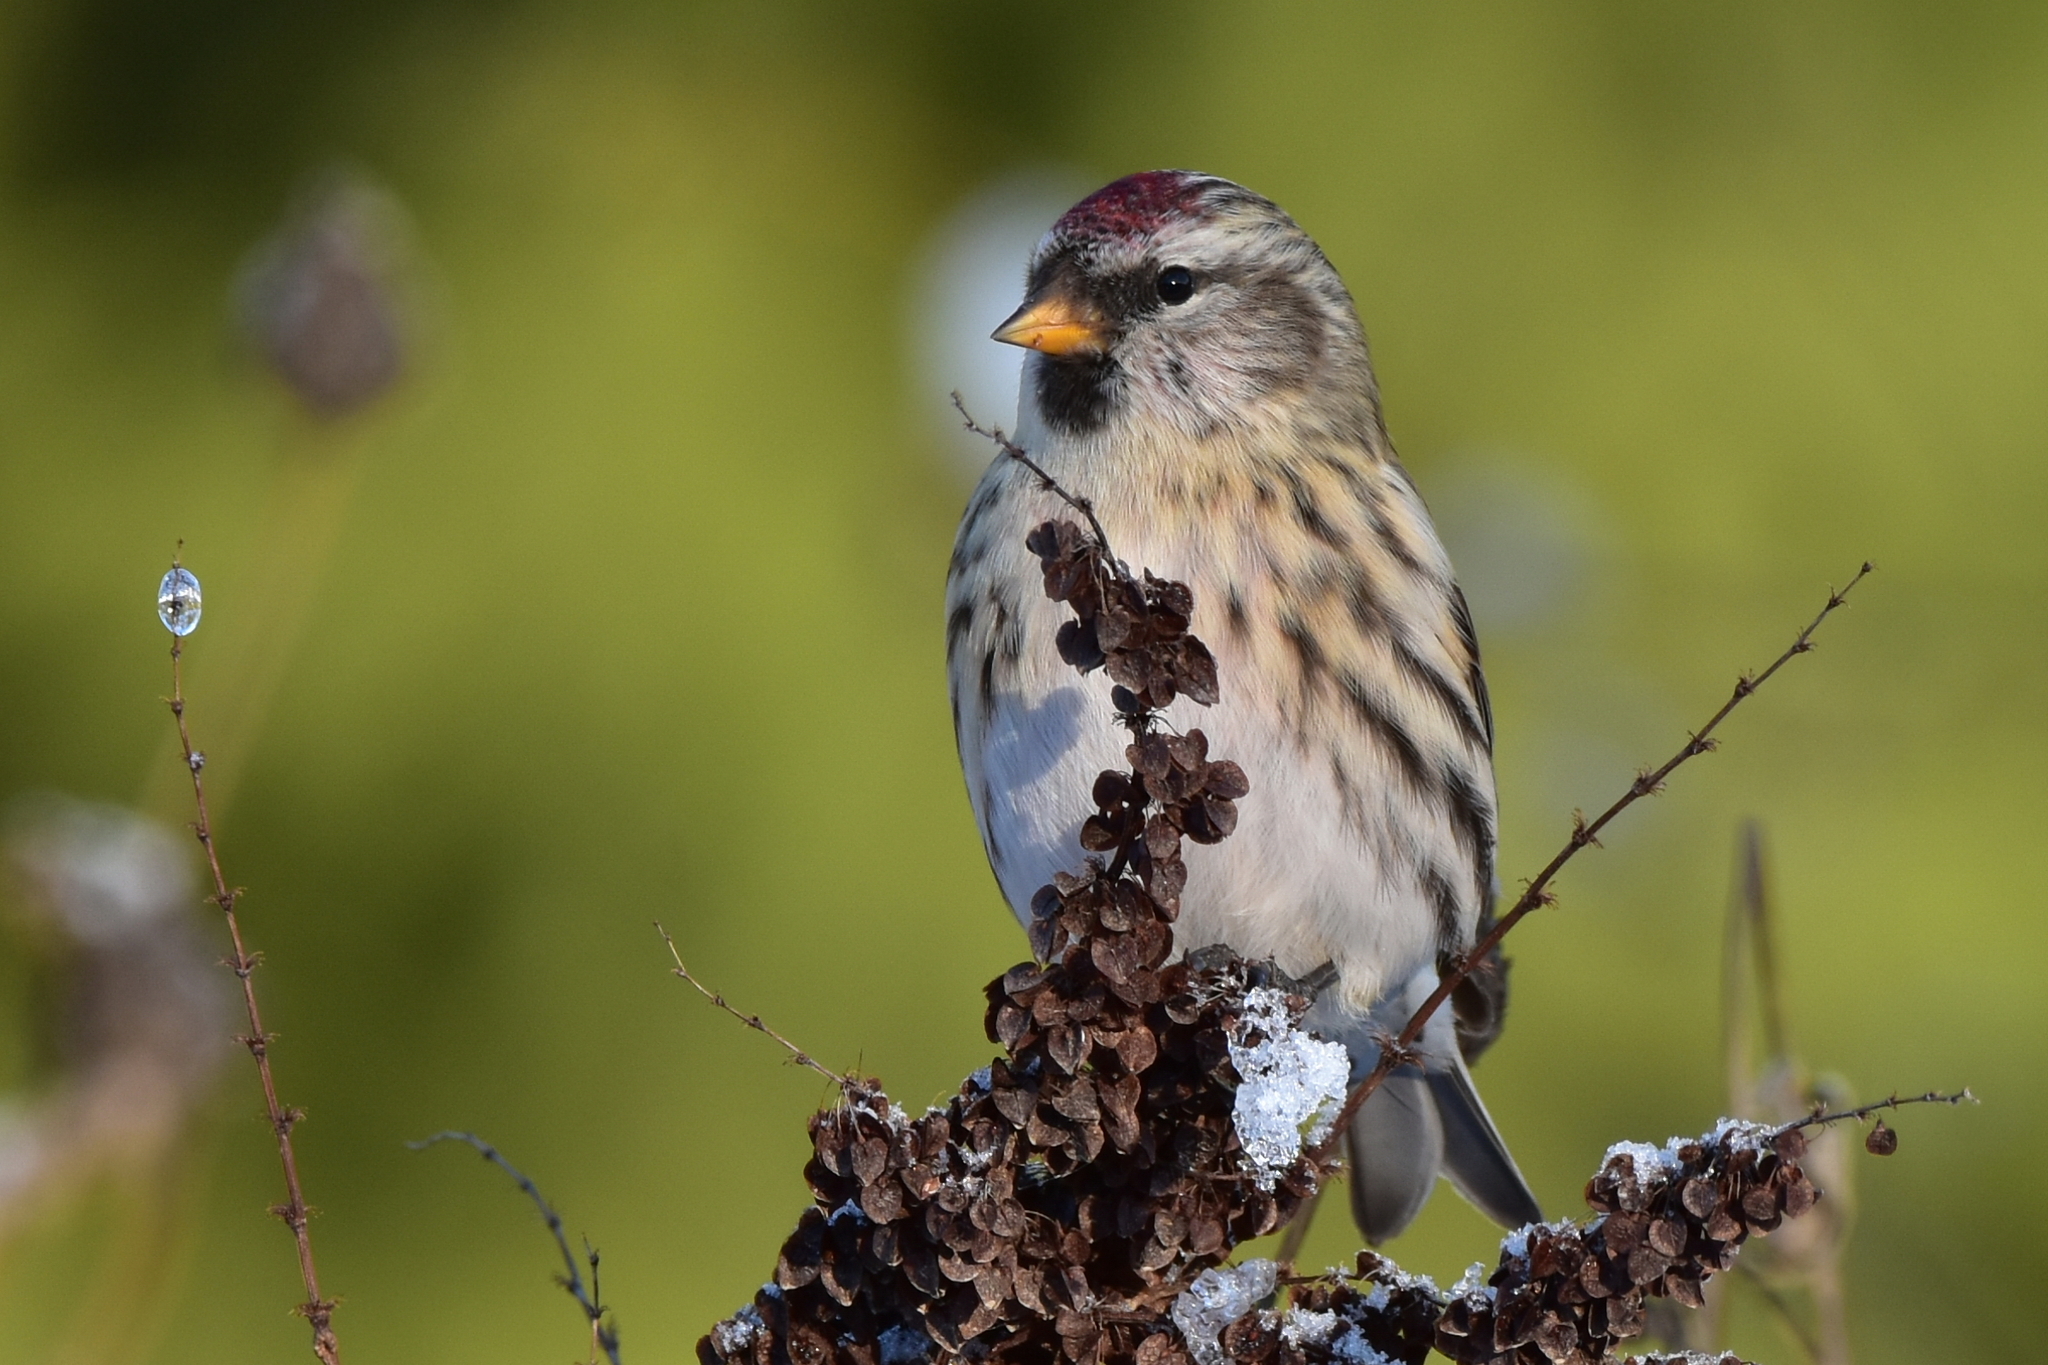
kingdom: Animalia
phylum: Chordata
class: Aves
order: Passeriformes
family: Fringillidae
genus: Acanthis
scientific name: Acanthis flammea
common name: Common redpoll
